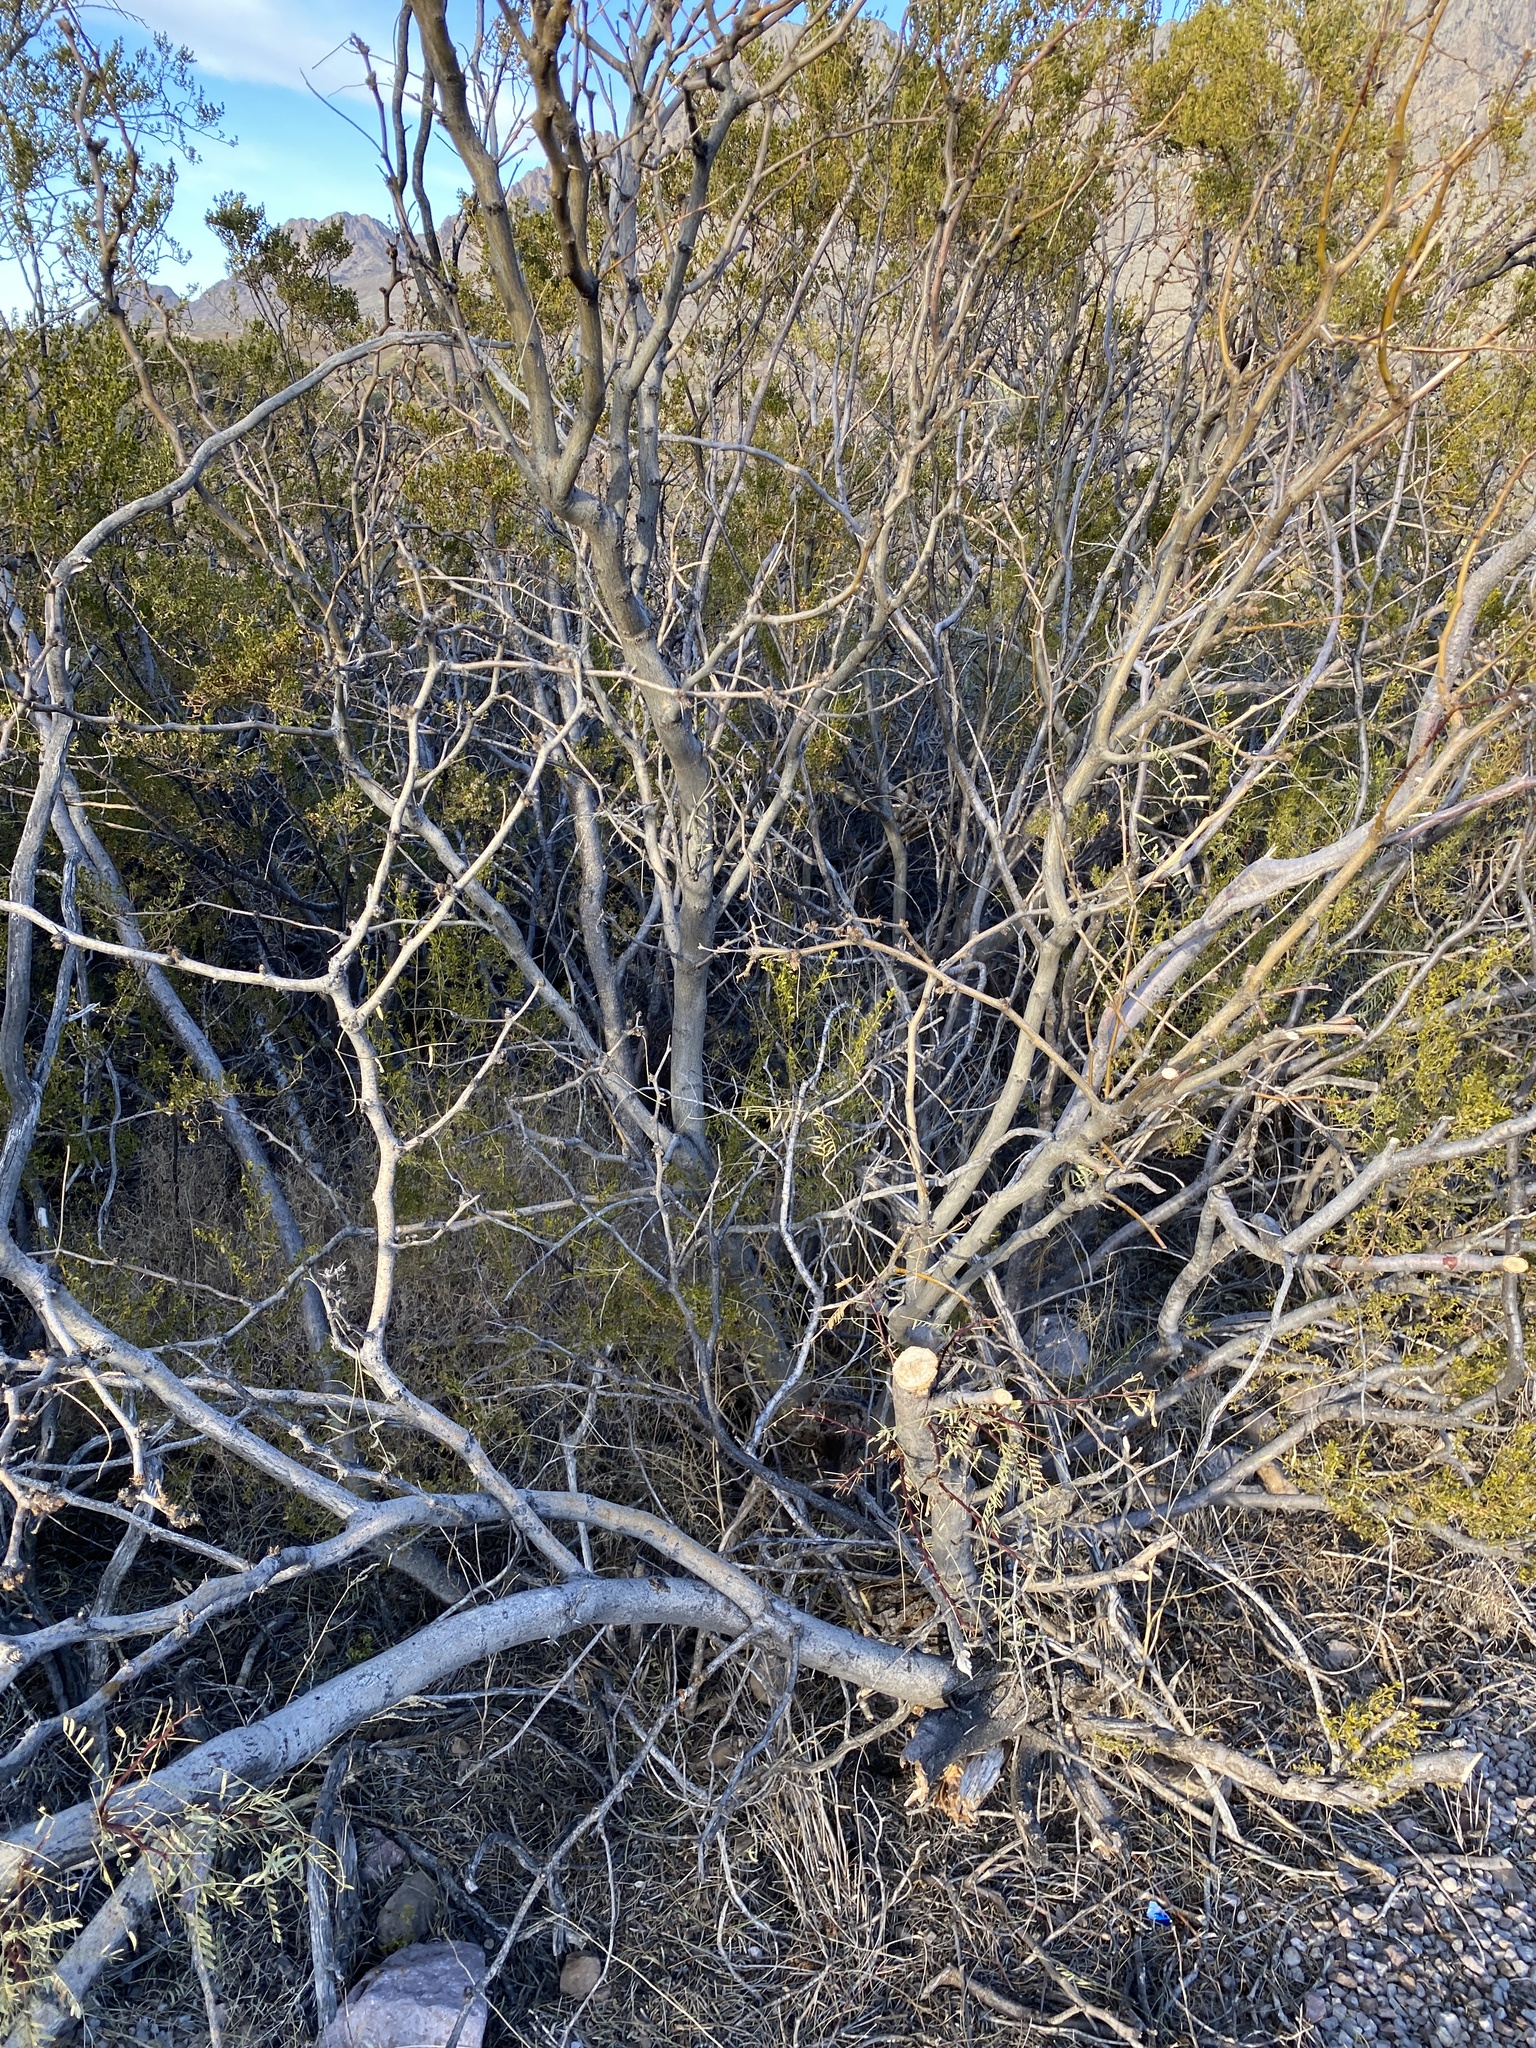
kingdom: Plantae
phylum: Tracheophyta
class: Magnoliopsida
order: Fabales
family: Fabaceae
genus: Prosopis
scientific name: Prosopis glandulosa
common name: Honey mesquite
